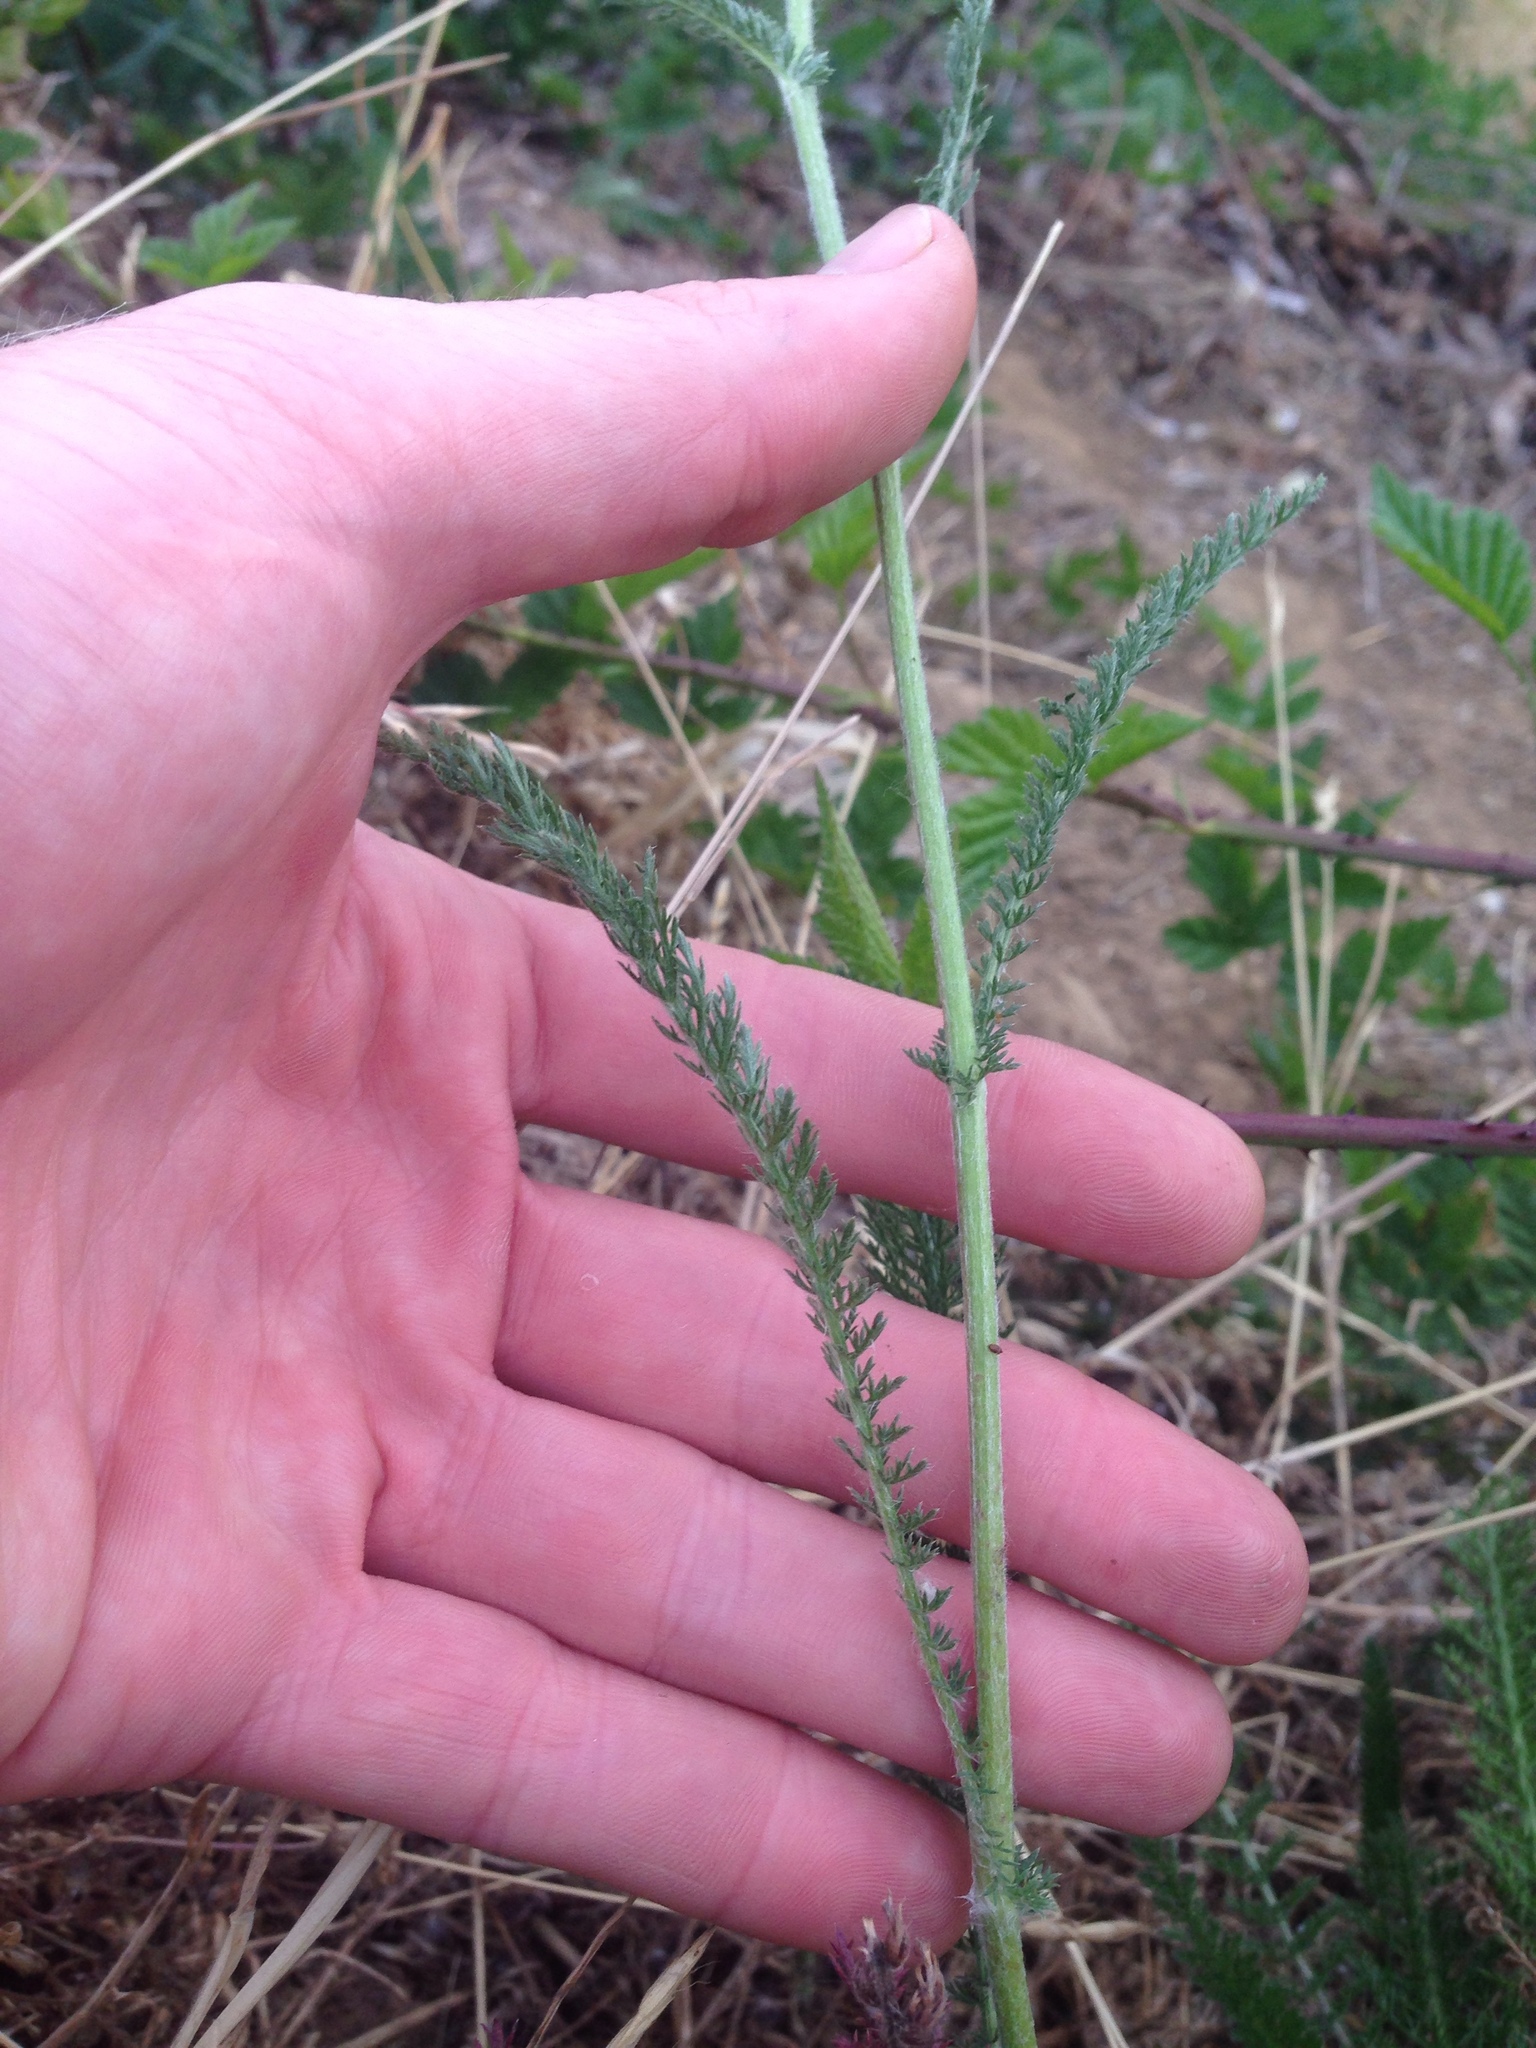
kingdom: Plantae
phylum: Tracheophyta
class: Magnoliopsida
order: Asterales
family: Asteraceae
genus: Achillea
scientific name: Achillea millefolium
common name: Yarrow
